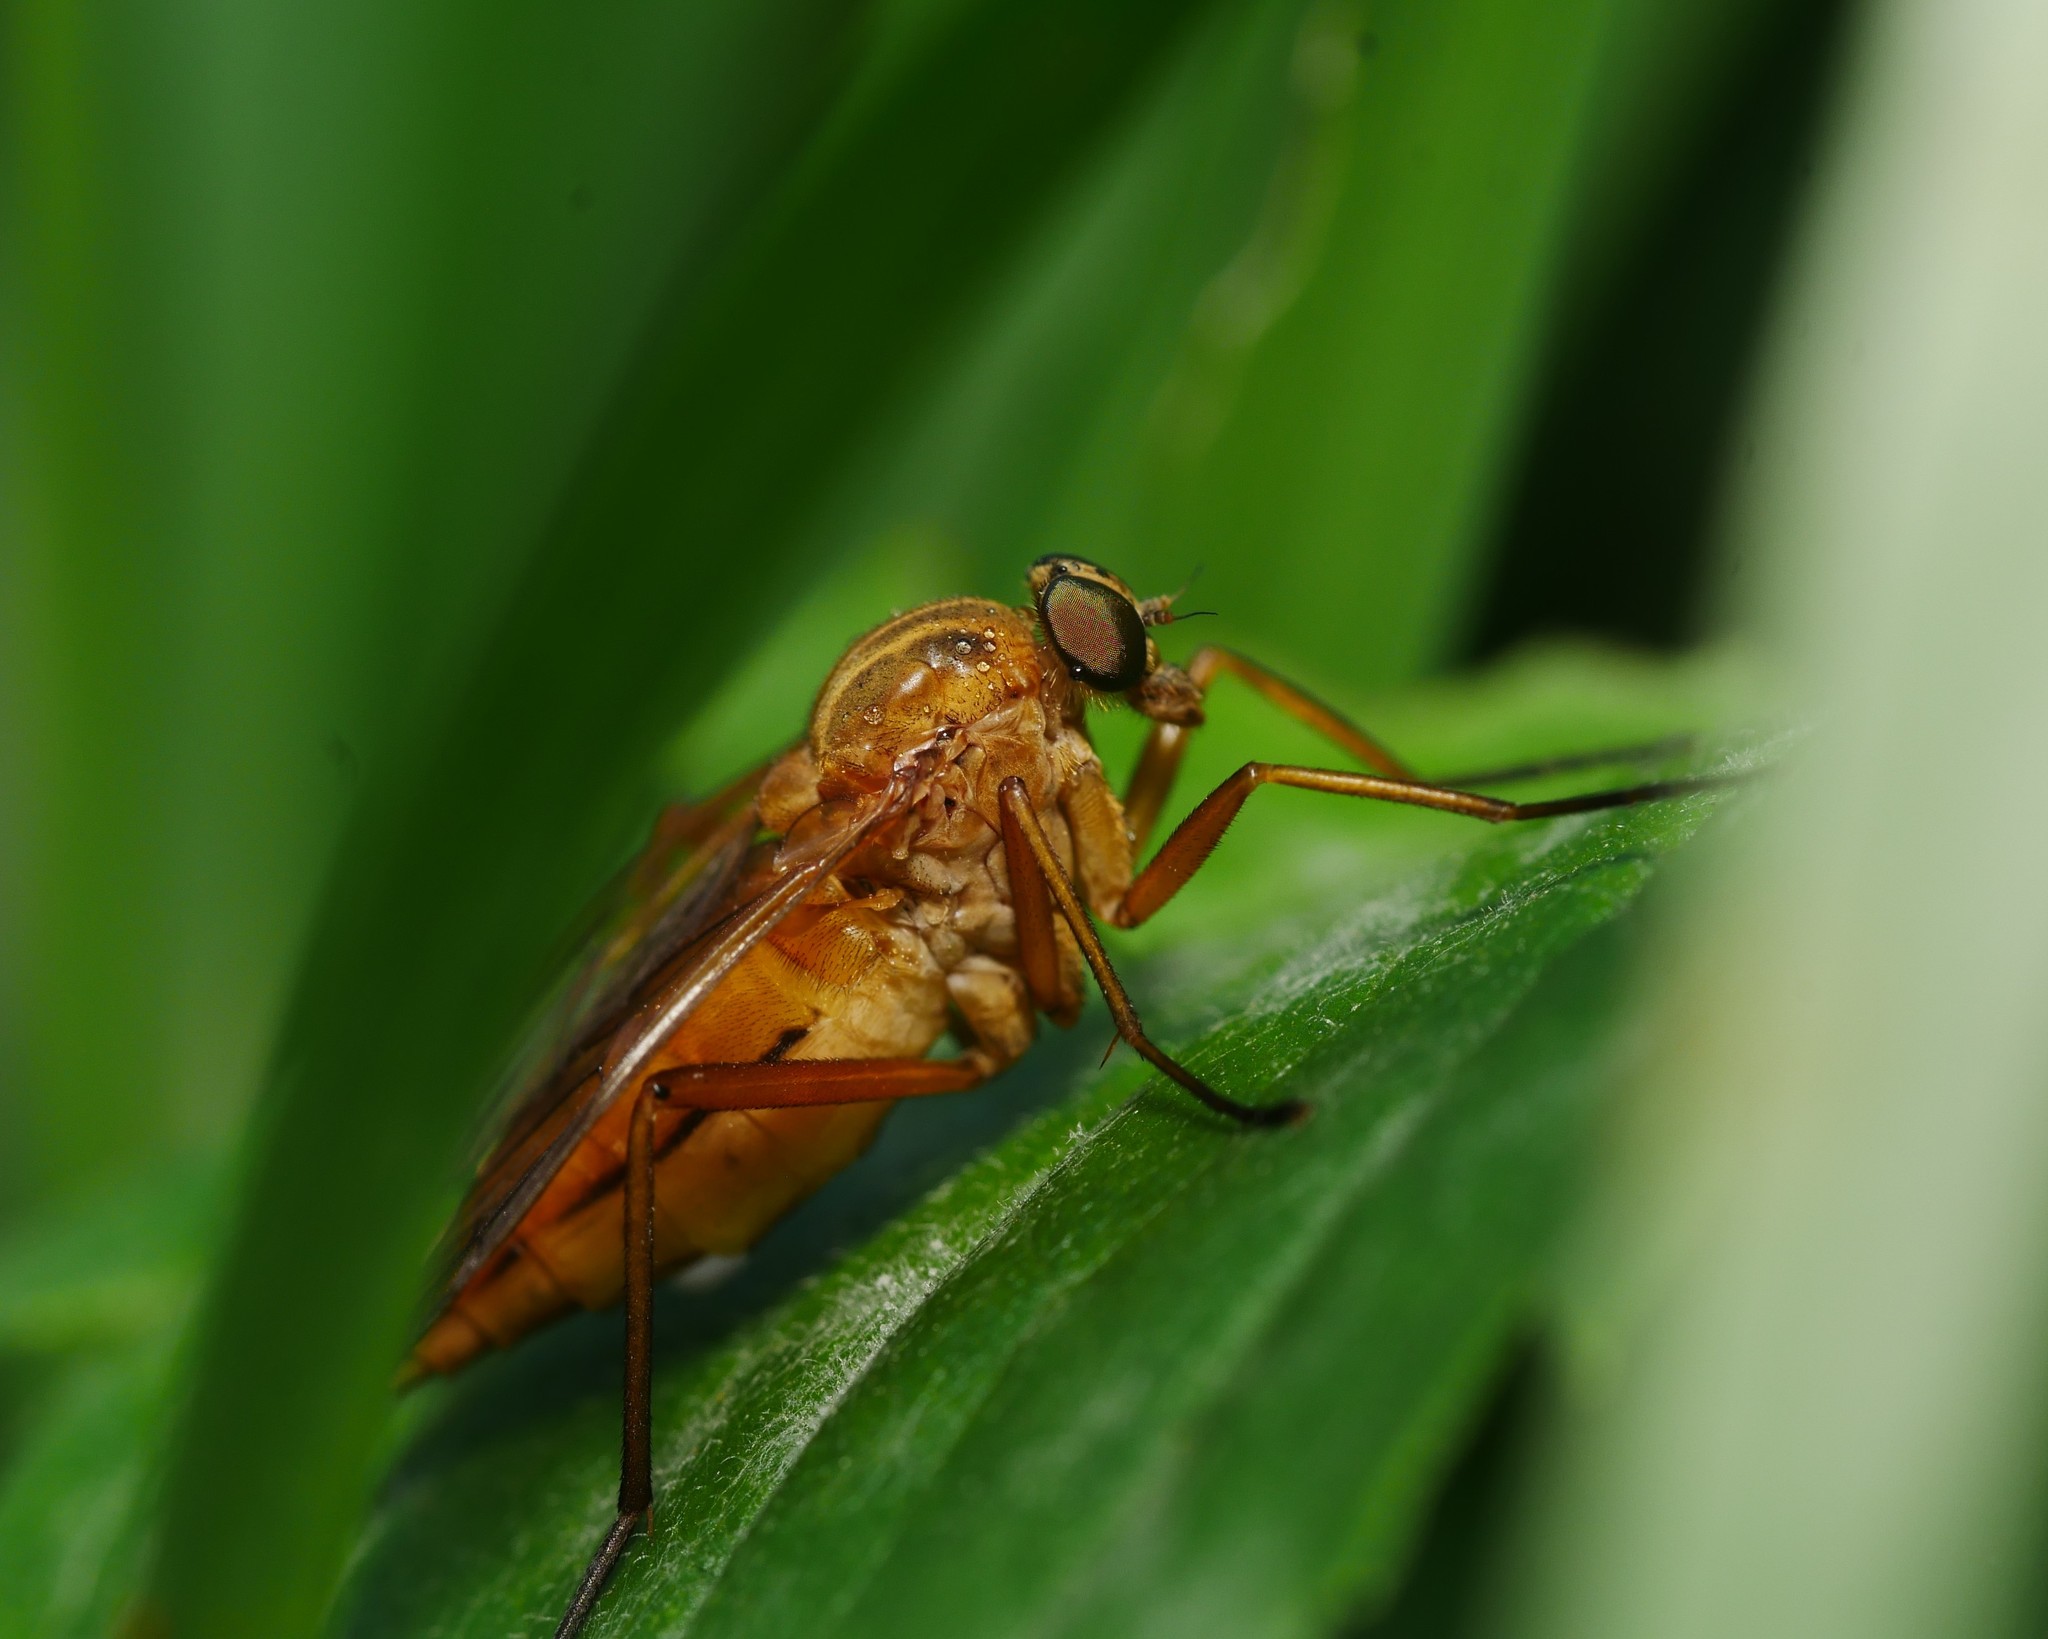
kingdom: Animalia
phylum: Arthropoda
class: Insecta
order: Diptera
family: Rhagionidae
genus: Rhagio
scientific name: Rhagio tringaria
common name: Marsh snipefly
